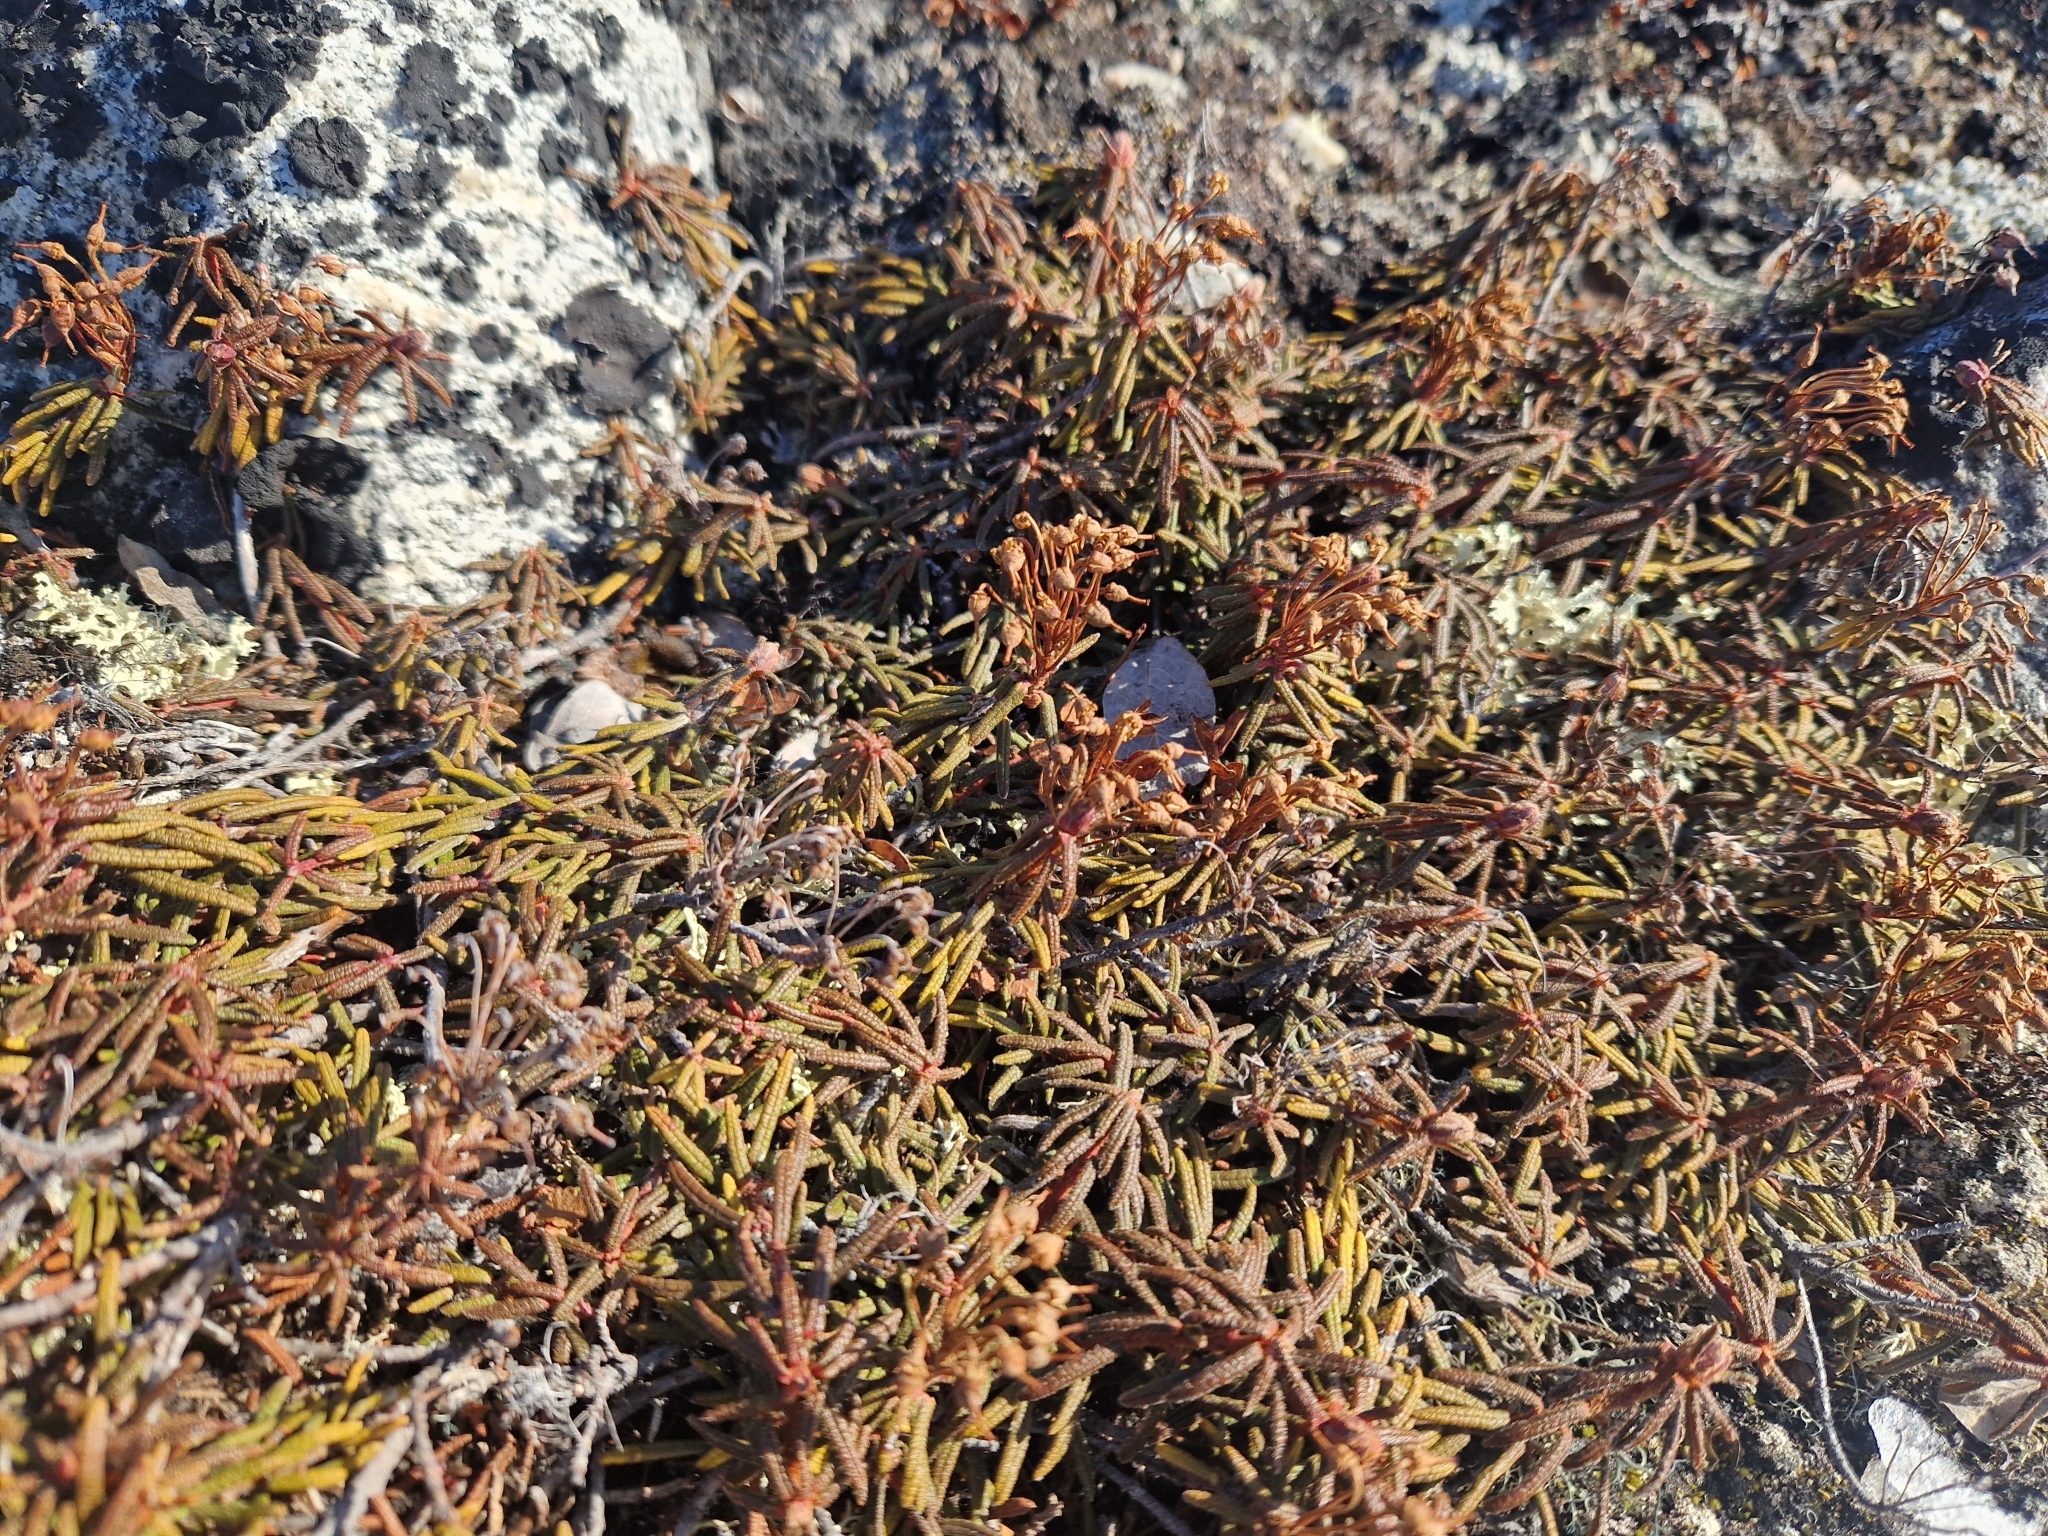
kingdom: Plantae
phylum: Tracheophyta
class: Magnoliopsida
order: Ericales
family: Ericaceae
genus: Rhododendron
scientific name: Rhododendron tomentosum
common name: Marsh labrador tea
